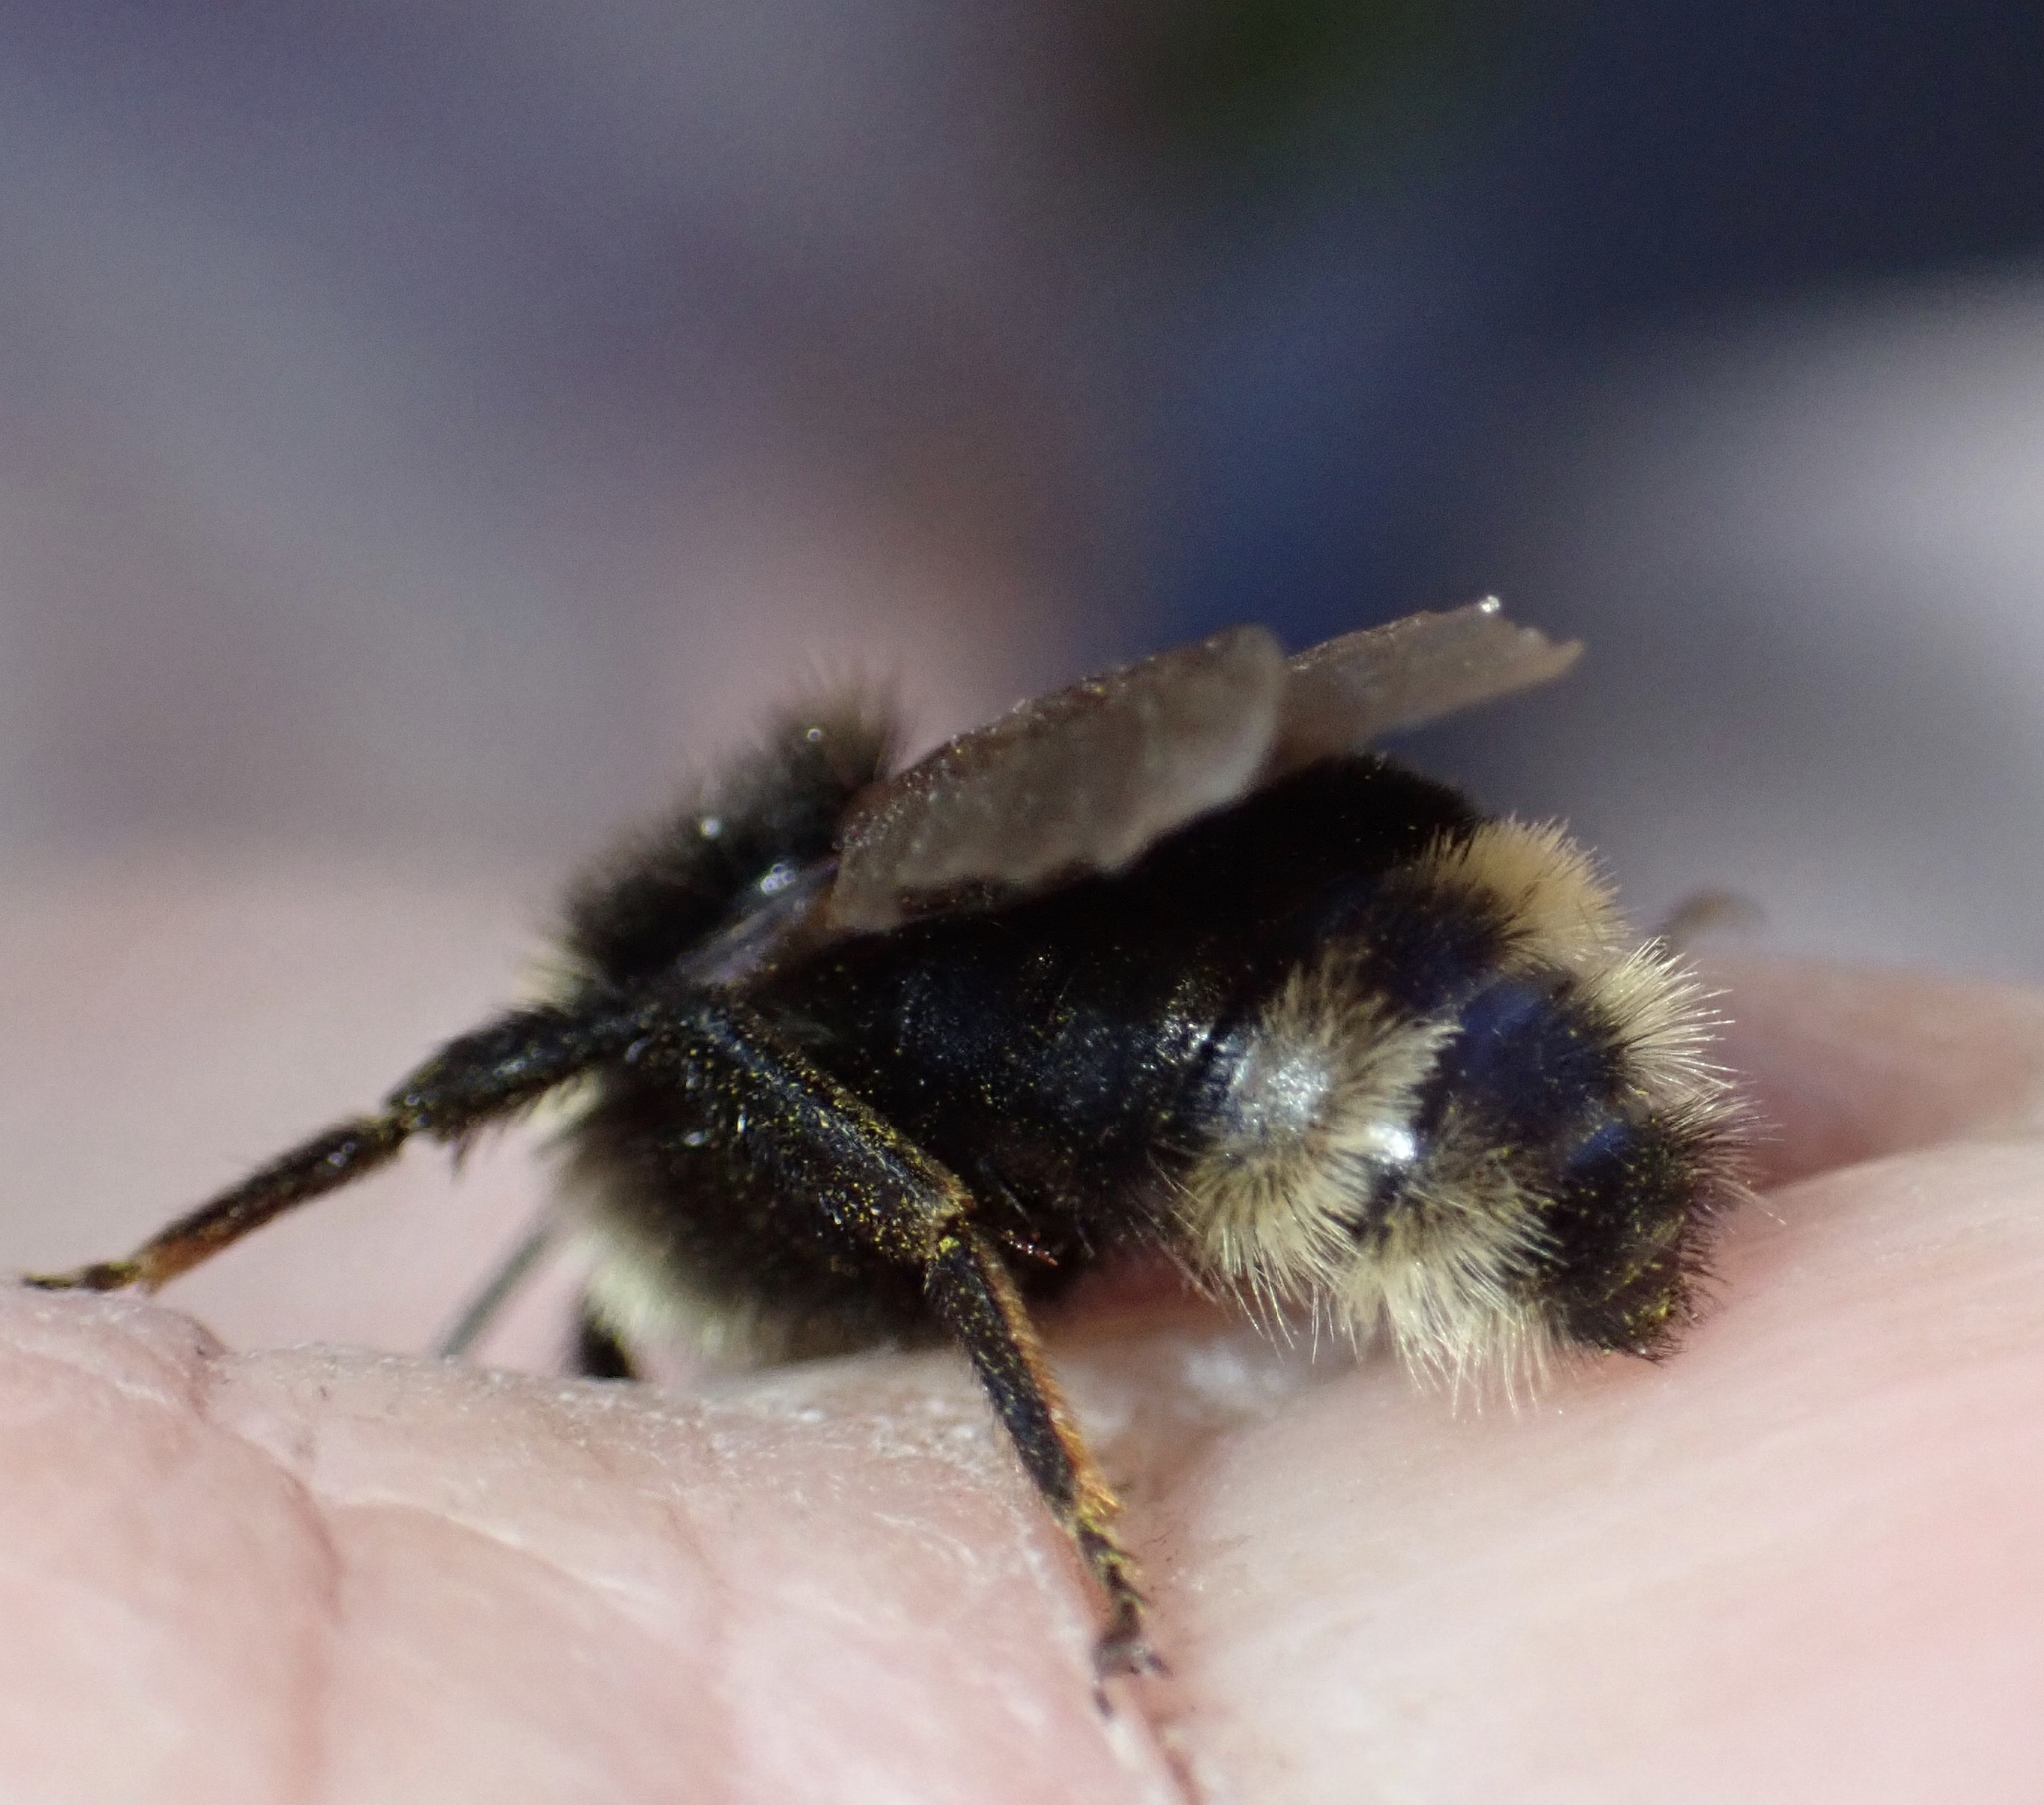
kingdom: Animalia
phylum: Arthropoda
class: Insecta
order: Hymenoptera
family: Apidae
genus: Bombus
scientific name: Bombus insularis
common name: Indiscriminate cuckoo bumble bee
